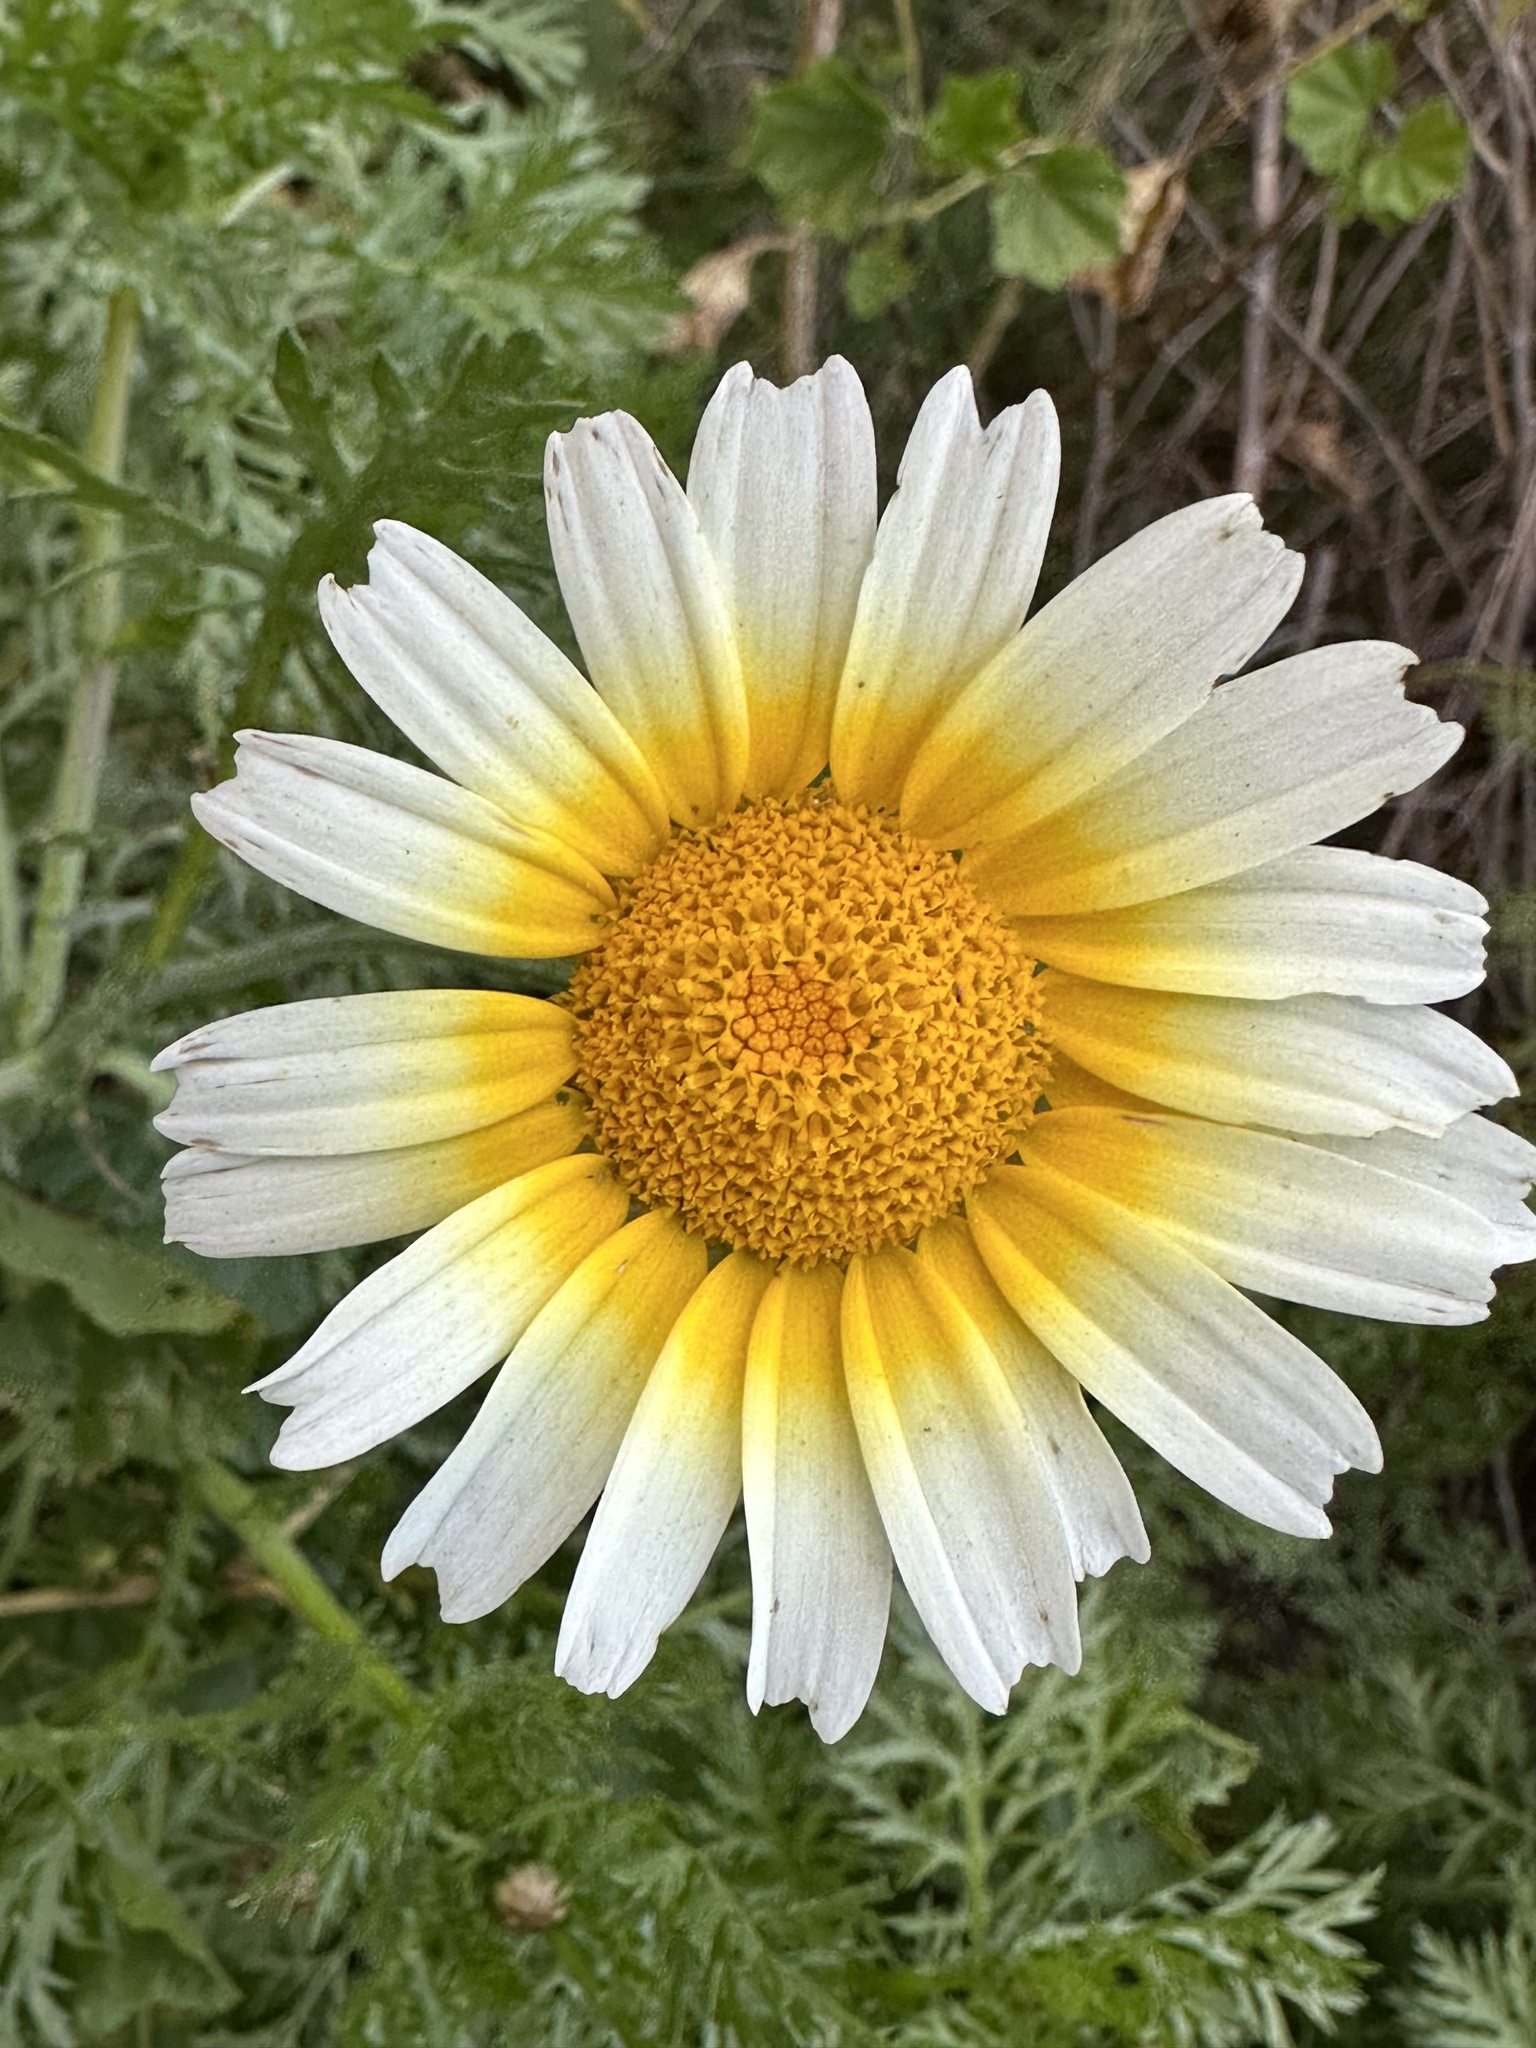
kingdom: Plantae
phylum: Tracheophyta
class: Magnoliopsida
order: Asterales
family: Asteraceae
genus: Glebionis
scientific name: Glebionis coronaria
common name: Crowndaisy
